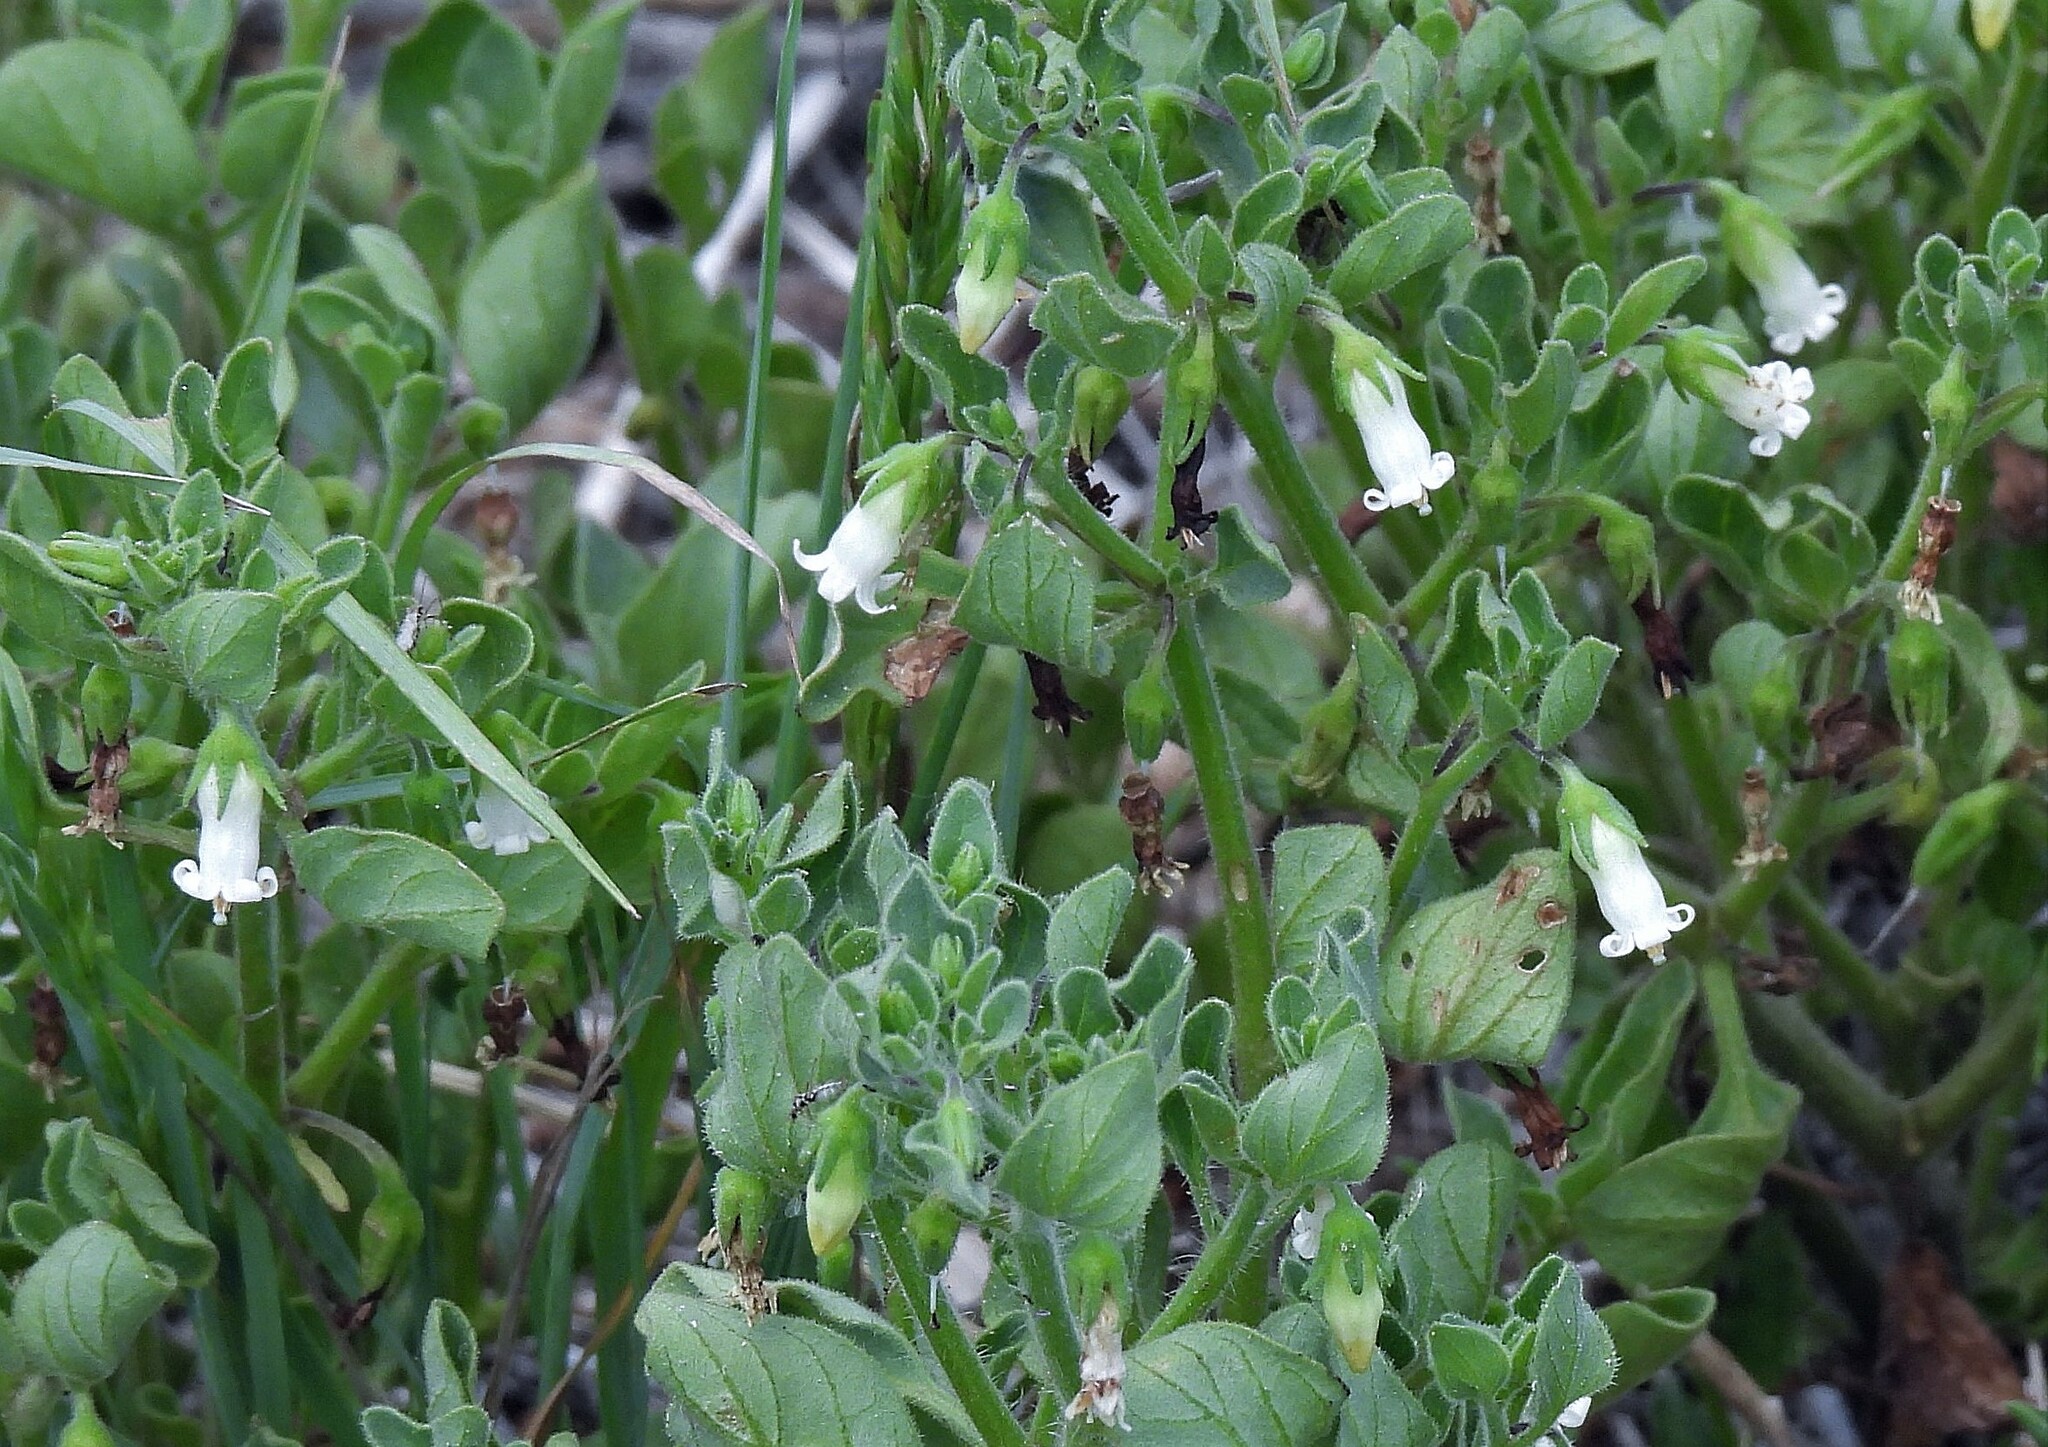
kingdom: Plantae
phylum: Tracheophyta
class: Magnoliopsida
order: Solanales
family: Solanaceae
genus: Salpichroa
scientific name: Salpichroa origanifolia
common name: Lily-of-the-valley-vine
